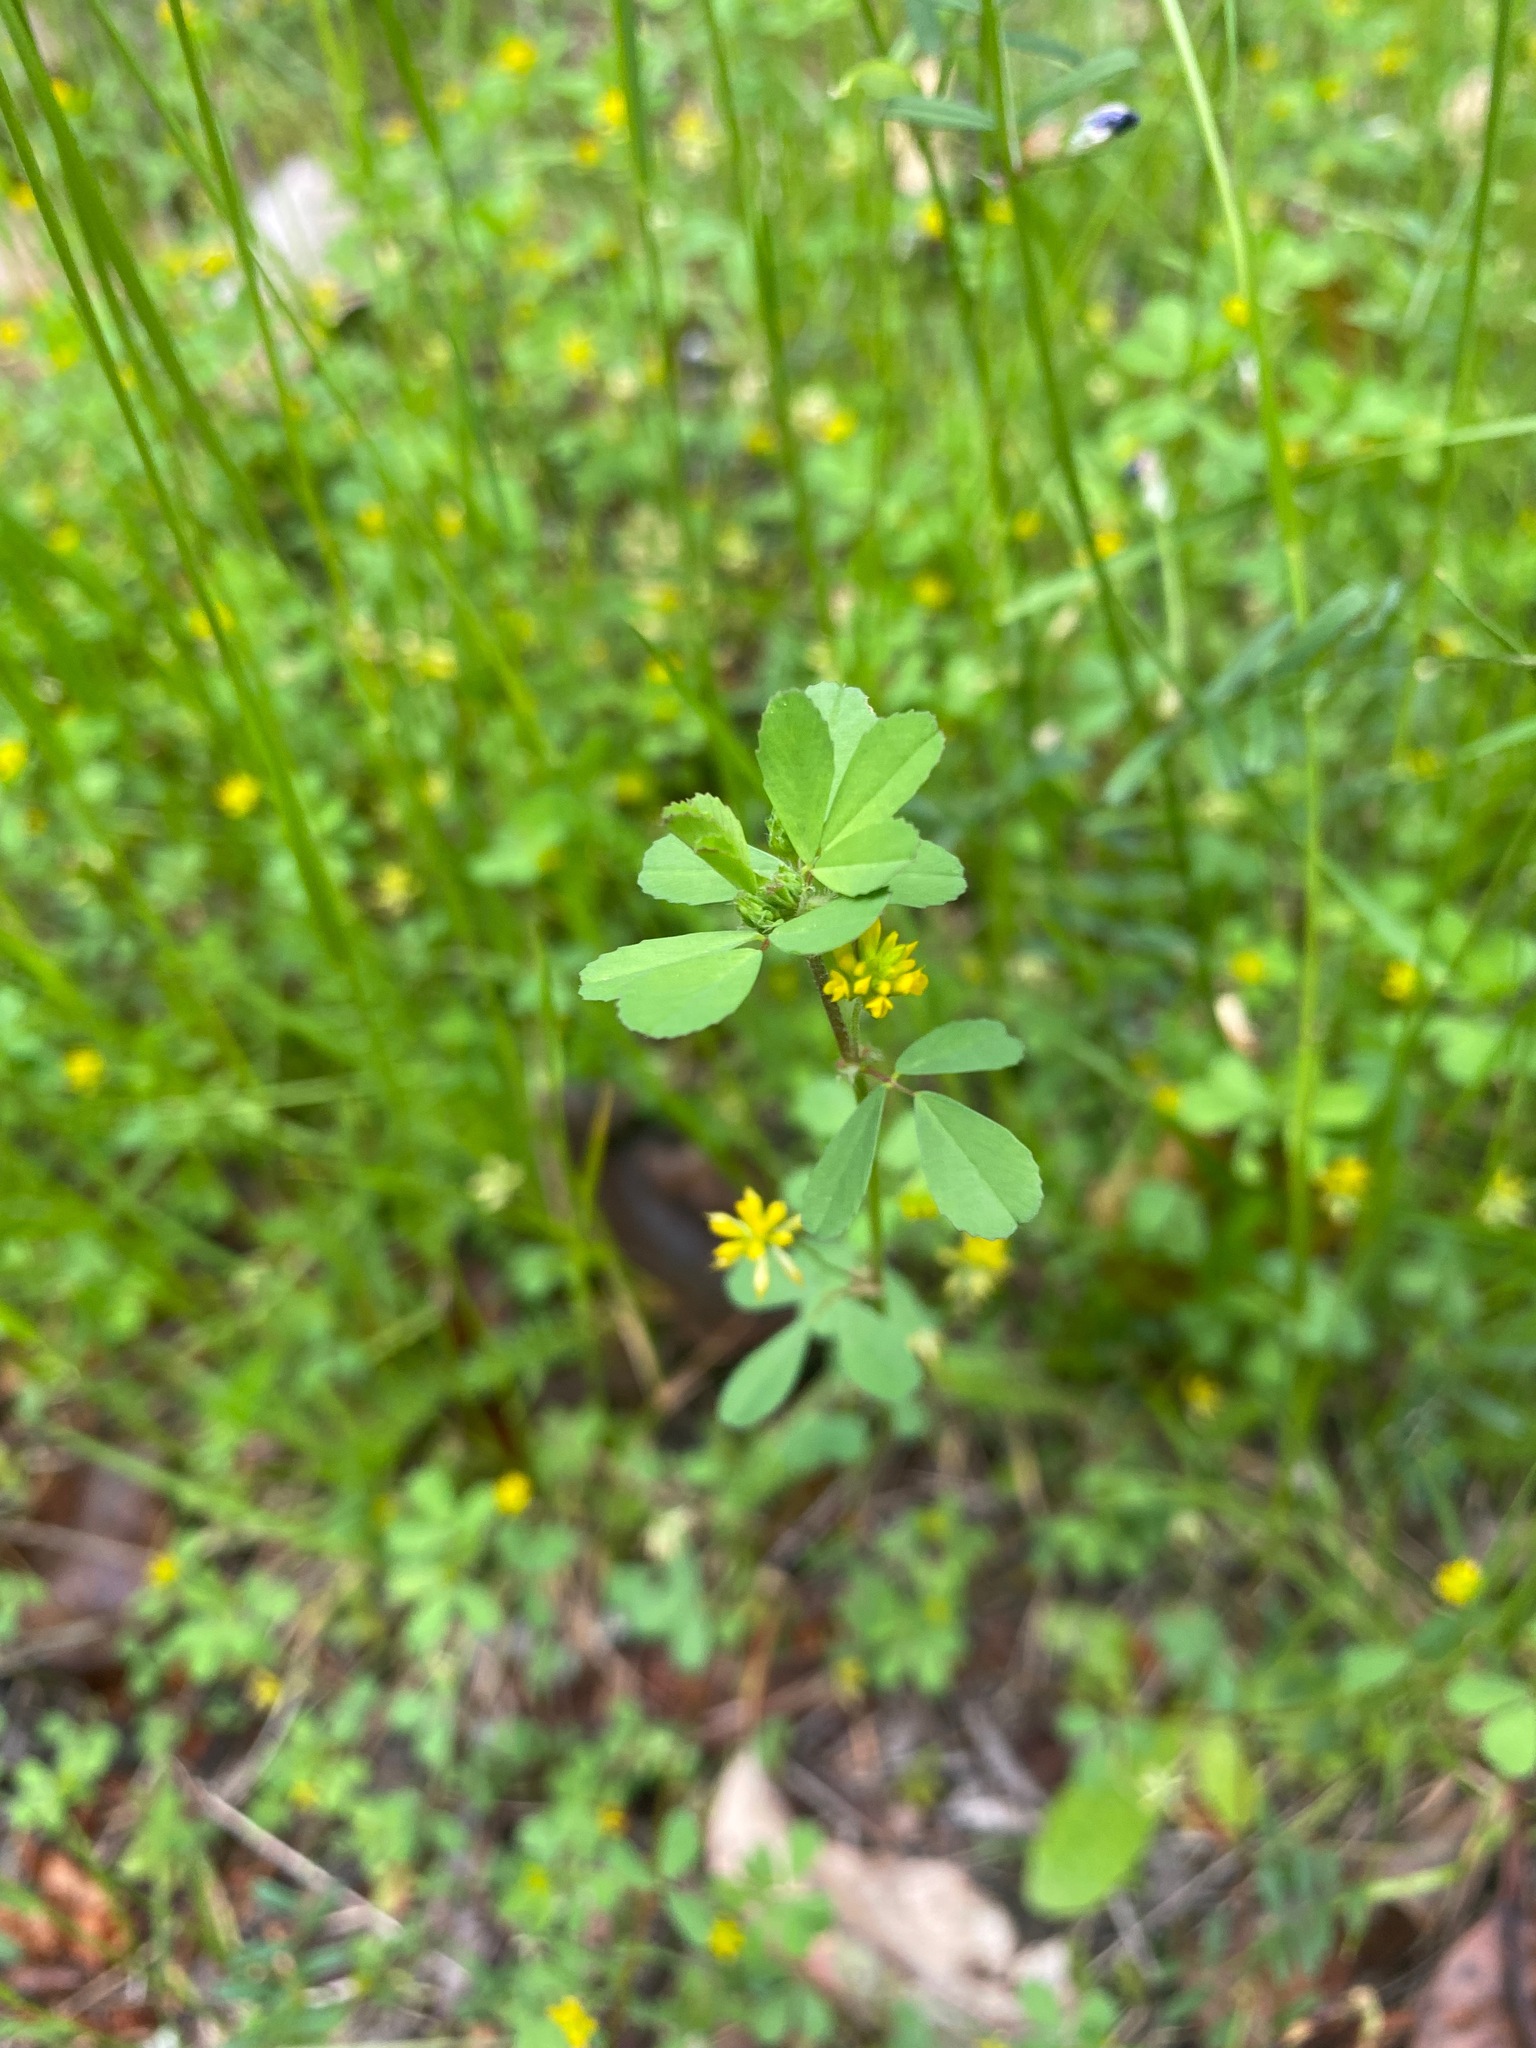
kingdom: Plantae
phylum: Tracheophyta
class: Magnoliopsida
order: Fabales
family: Fabaceae
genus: Trifolium
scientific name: Trifolium dubium
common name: Suckling clover
